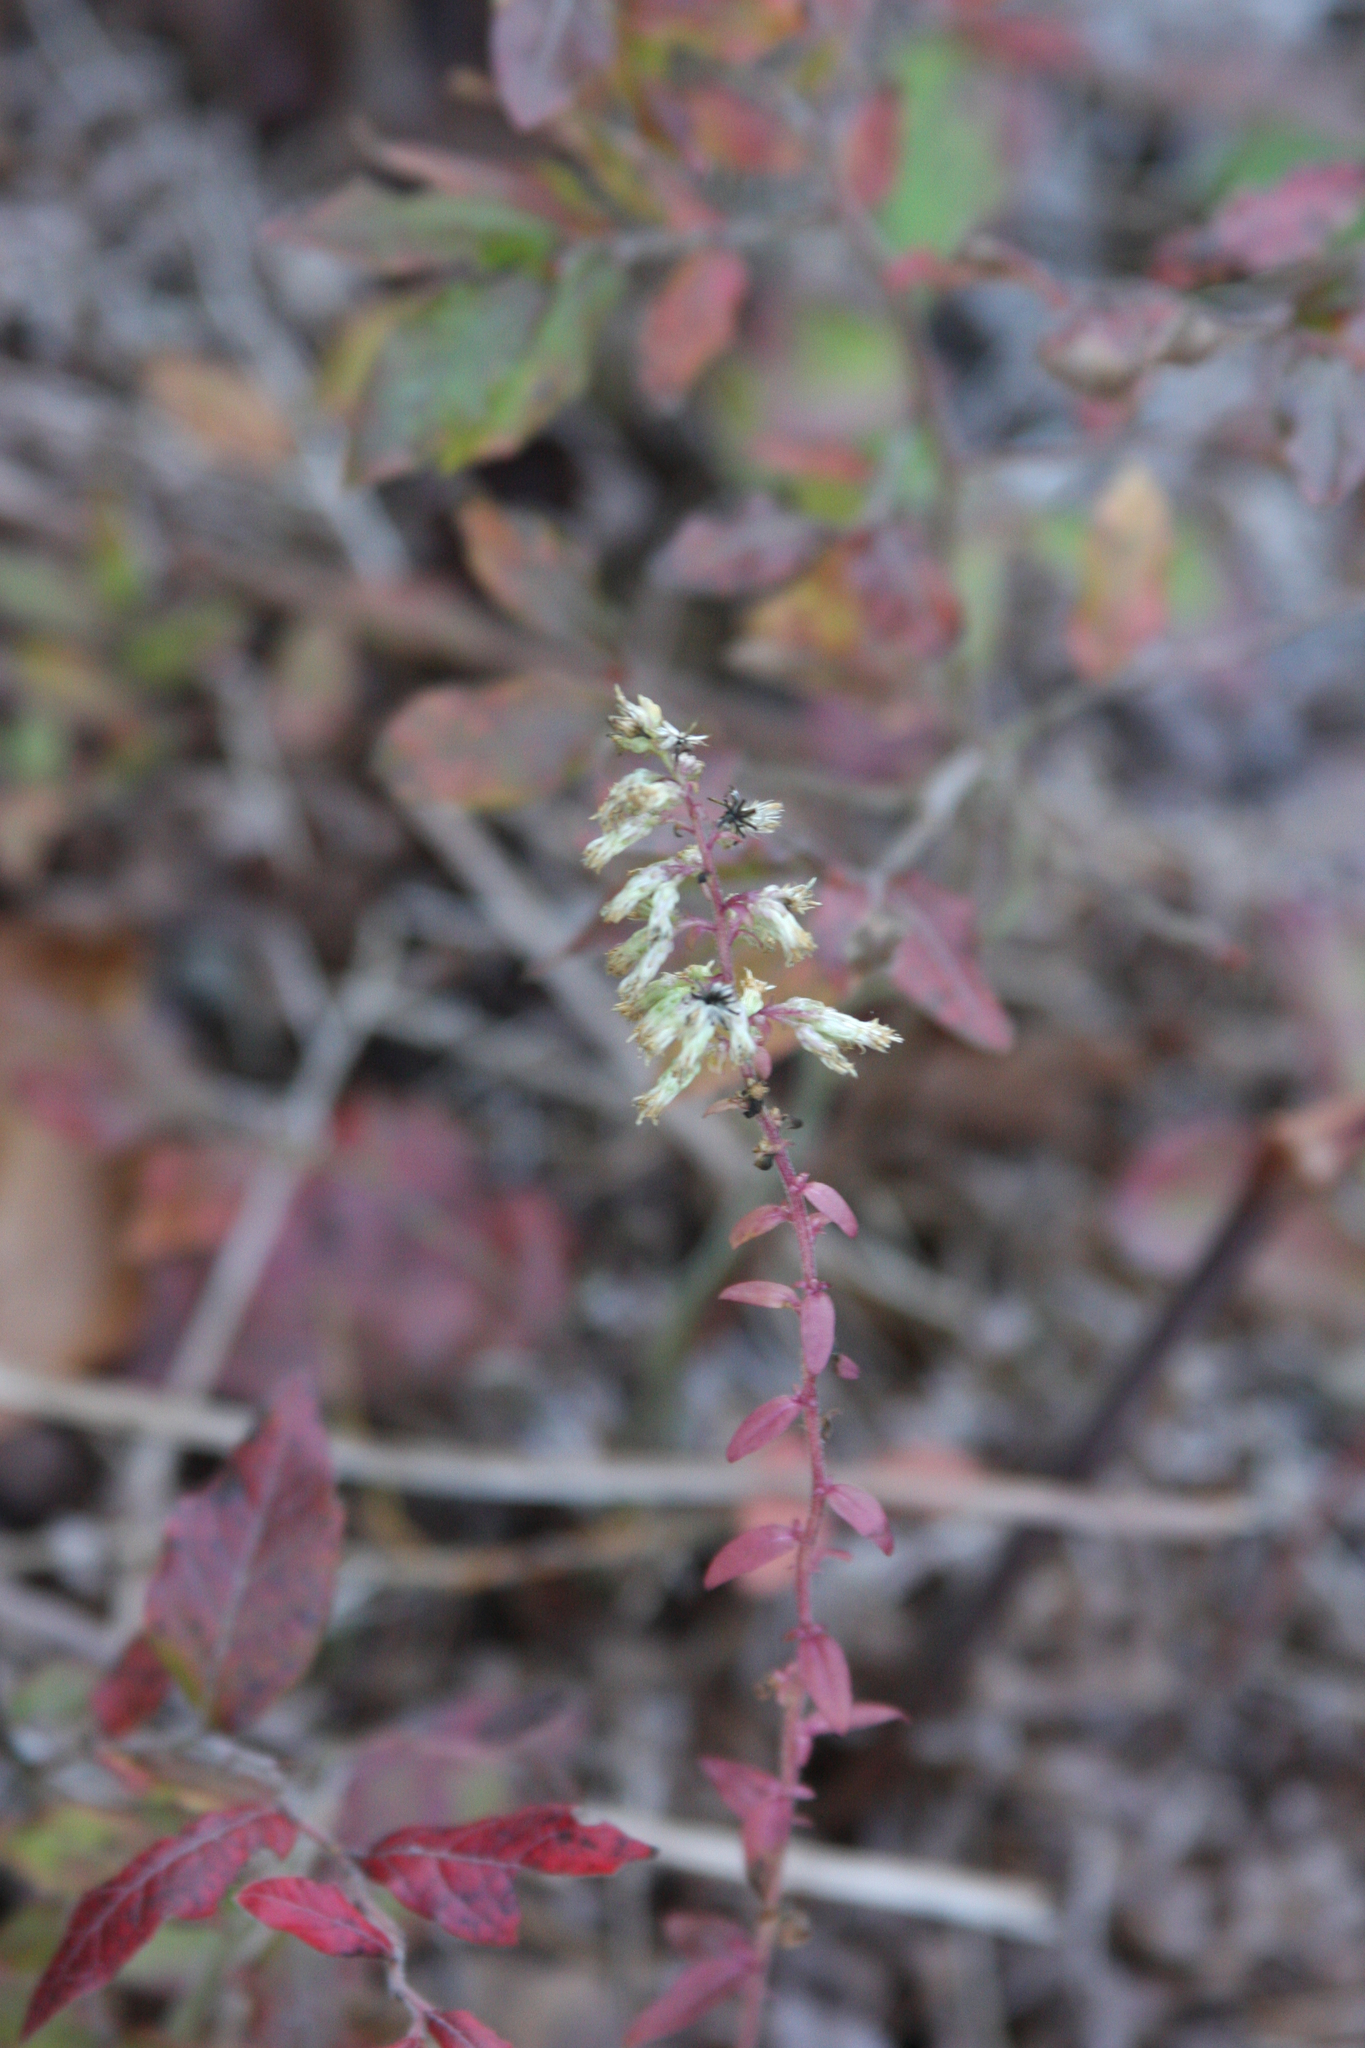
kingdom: Plantae
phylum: Tracheophyta
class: Magnoliopsida
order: Asterales
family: Asteraceae
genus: Solidago
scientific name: Solidago bicolor
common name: Silverrod
